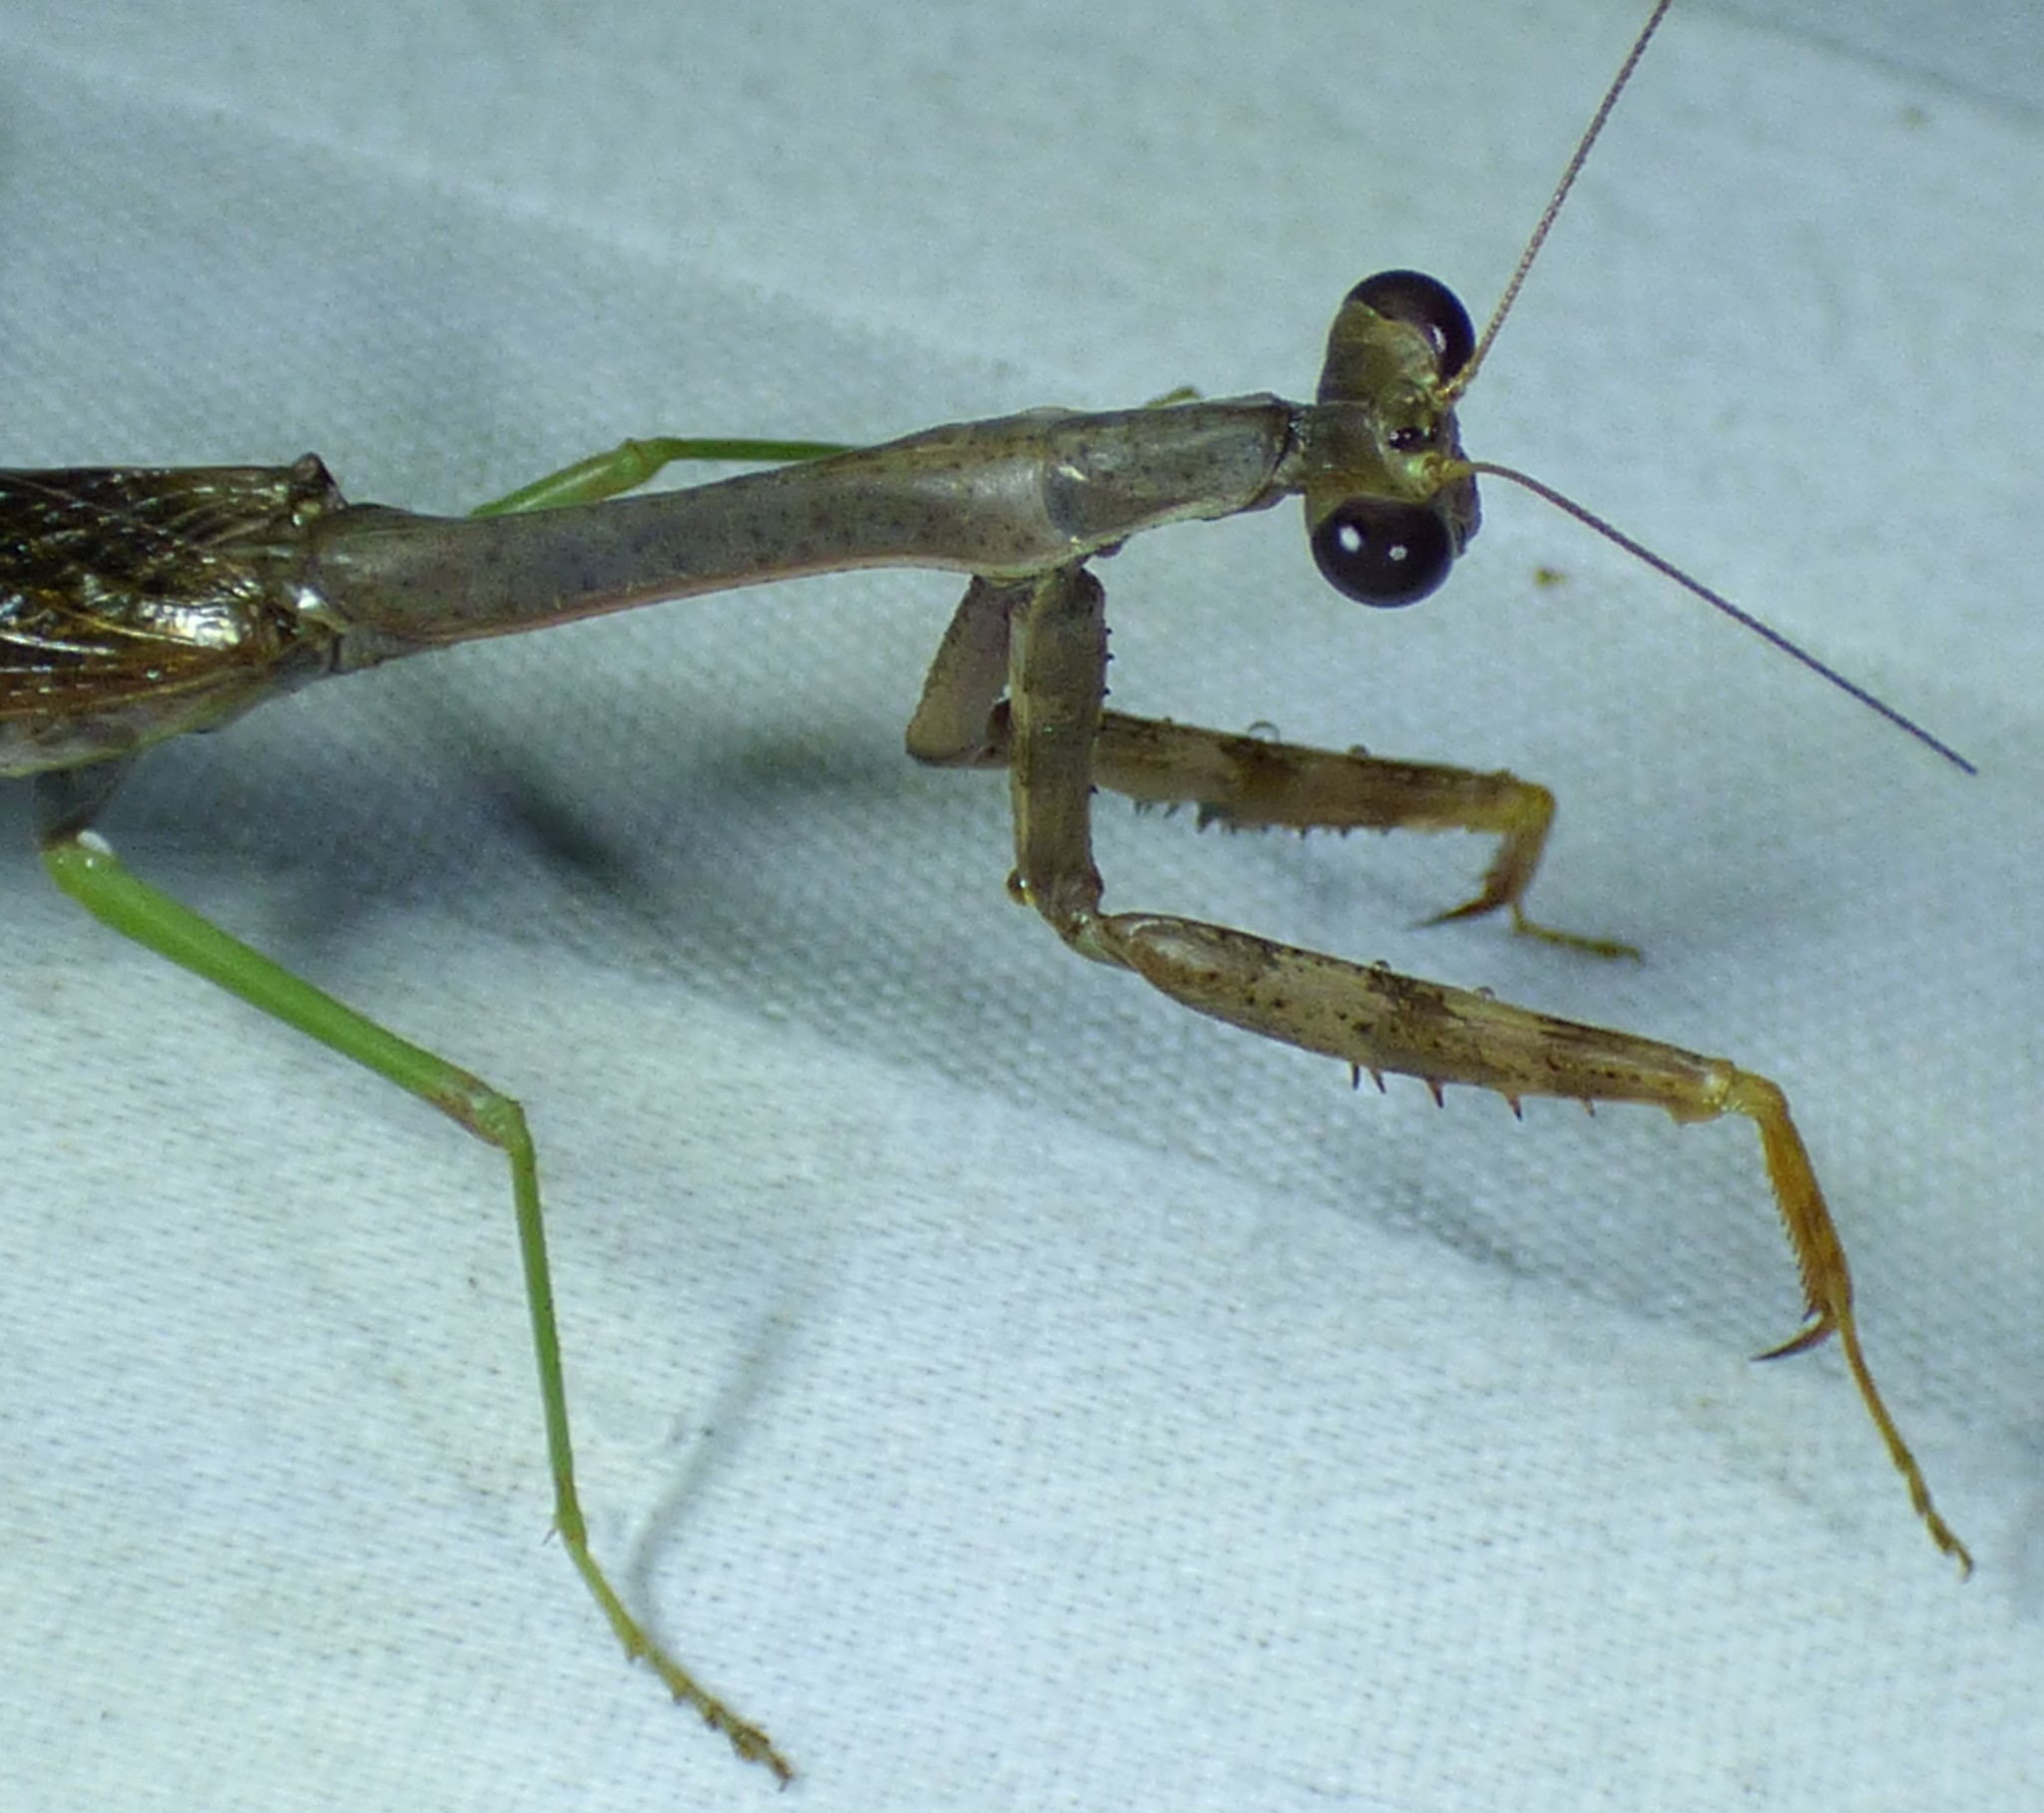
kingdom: Animalia
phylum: Arthropoda
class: Insecta
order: Mantodea
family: Mantidae
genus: Stagmomantis
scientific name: Stagmomantis carolina
